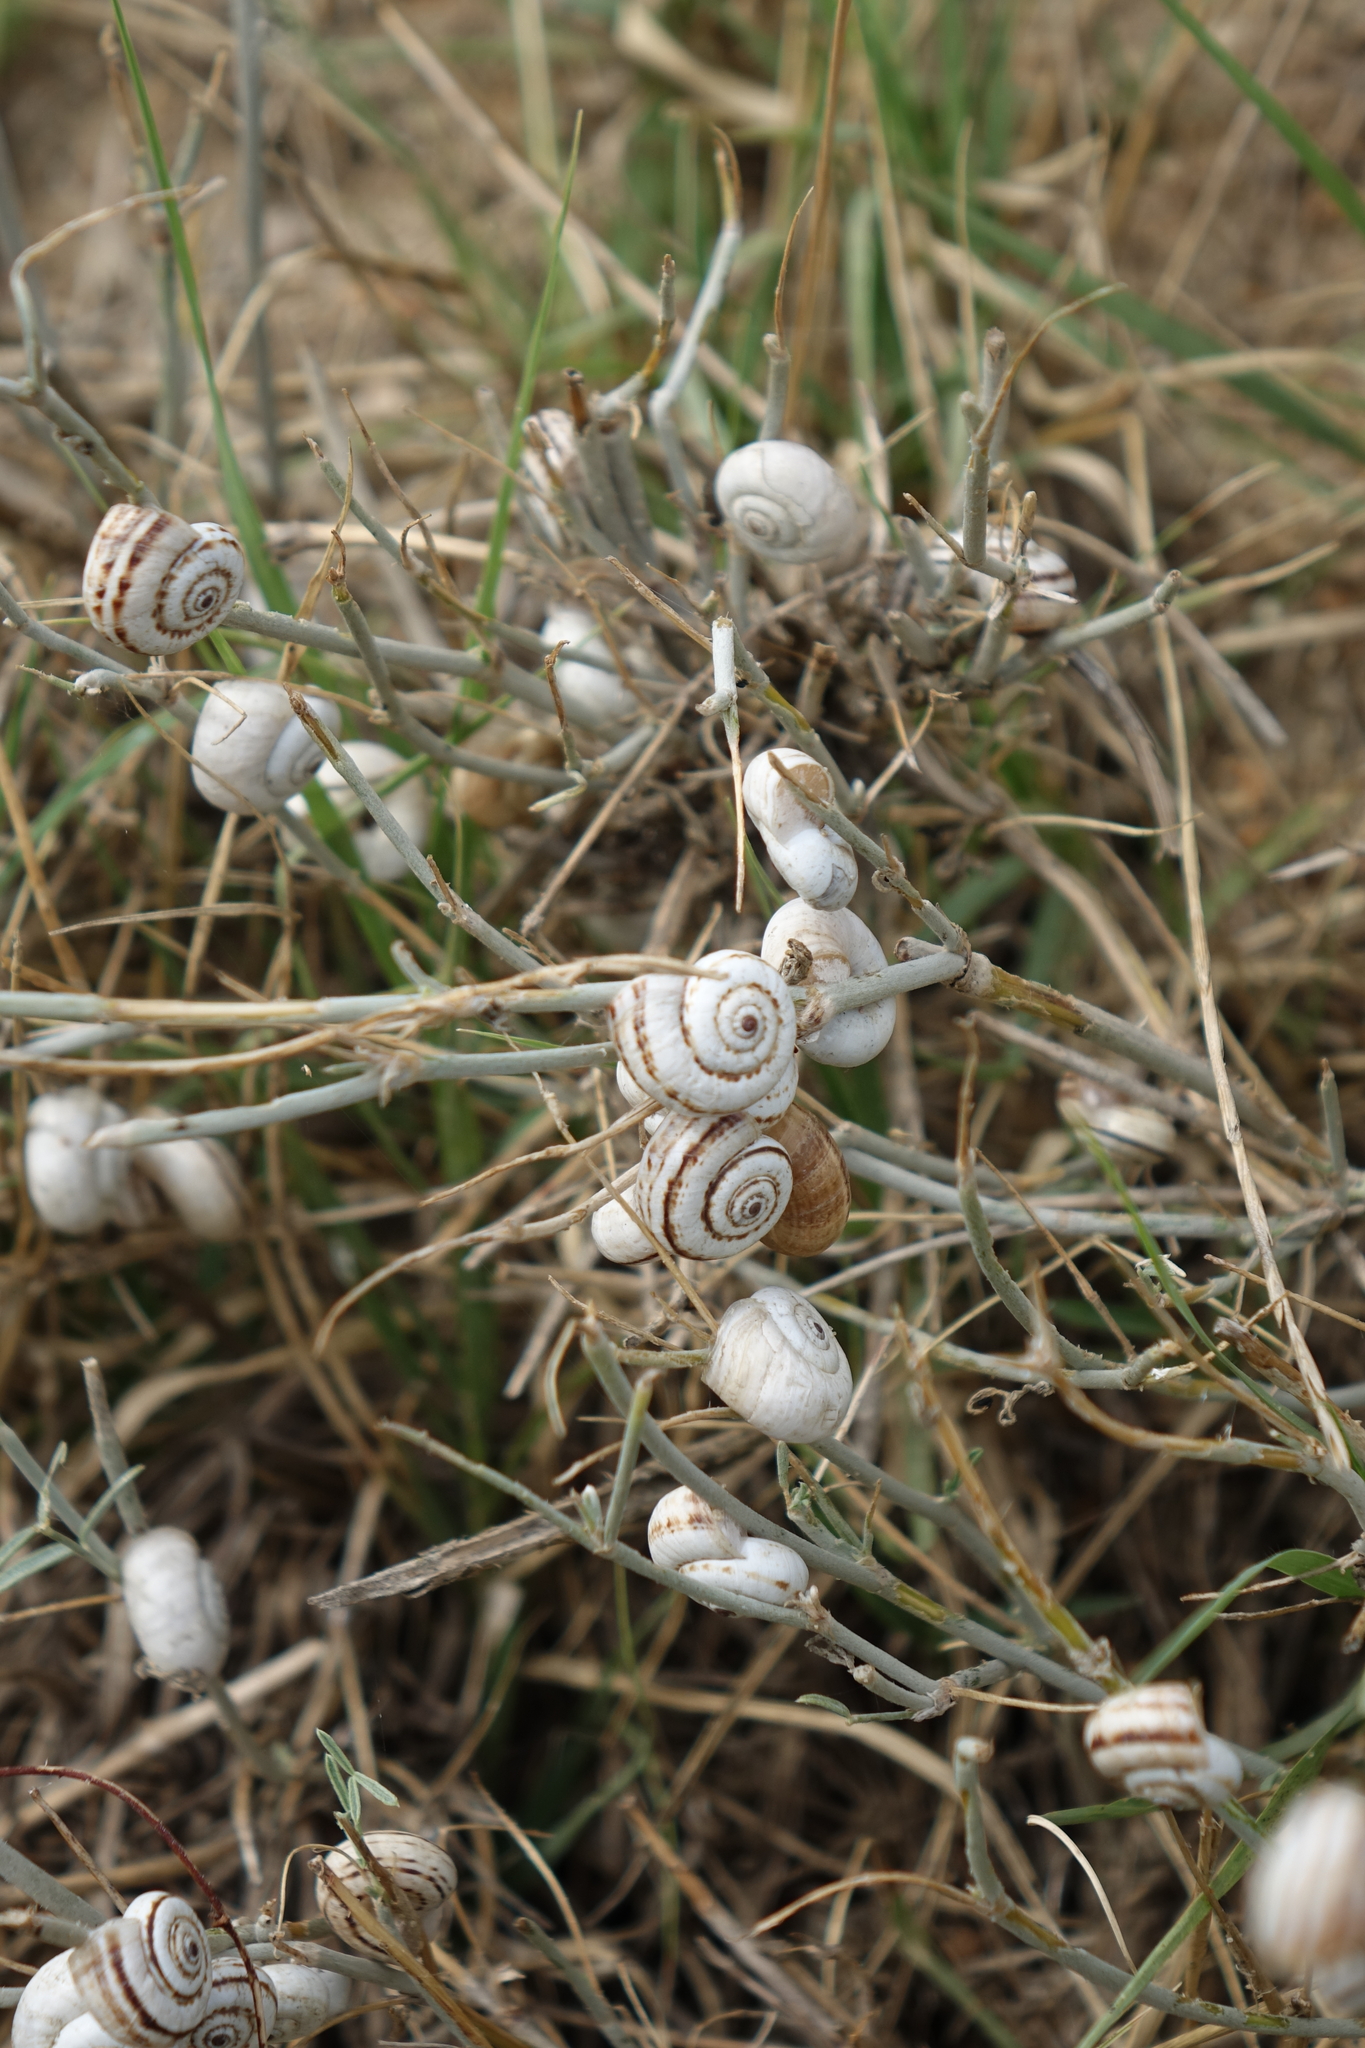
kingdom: Animalia
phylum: Mollusca
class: Gastropoda
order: Stylommatophora
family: Geomitridae
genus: Xeropicta
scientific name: Xeropicta derbentina
